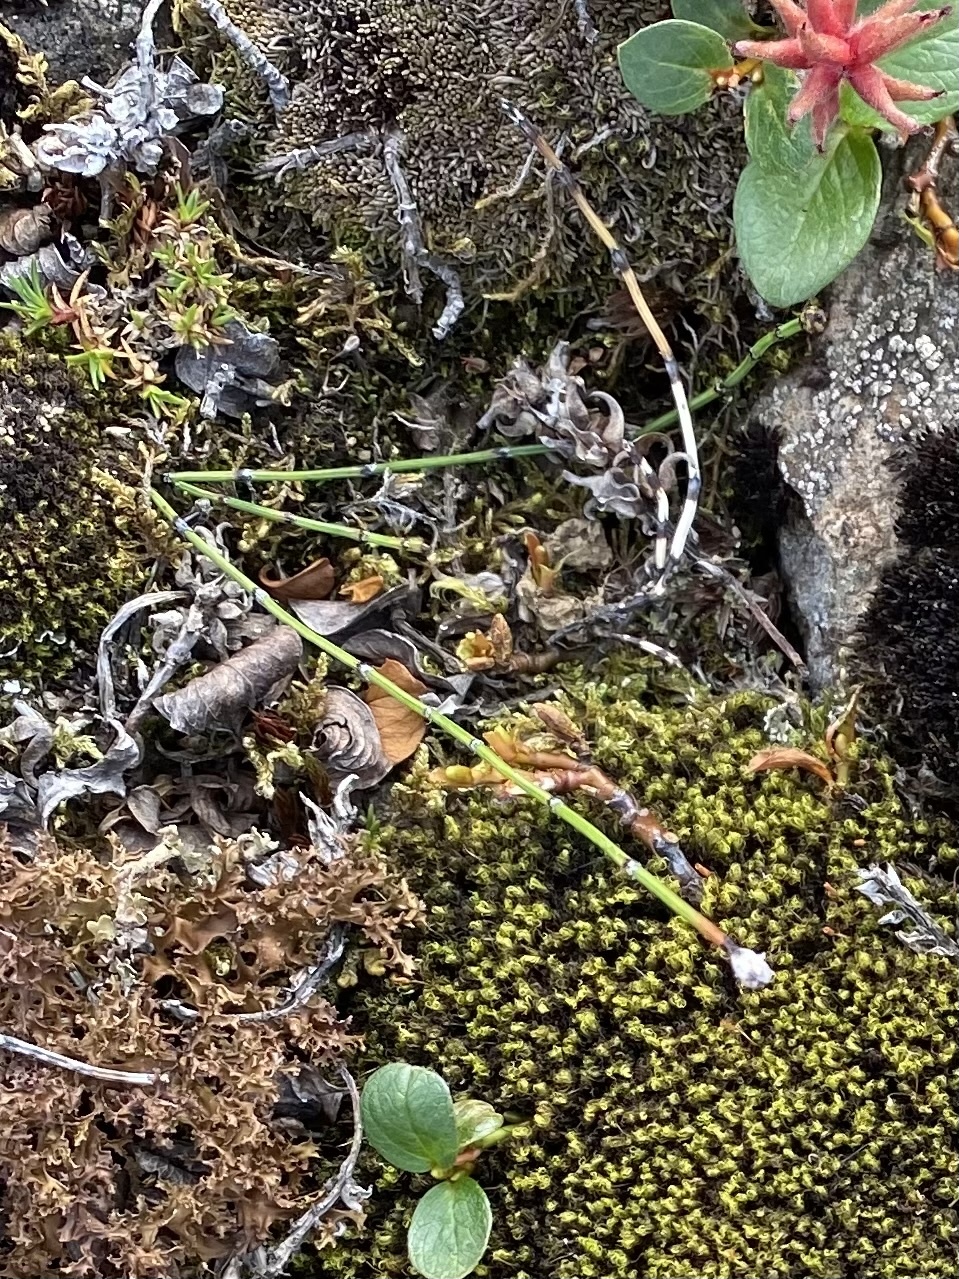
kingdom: Plantae
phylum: Tracheophyta
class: Polypodiopsida
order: Equisetales
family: Equisetaceae
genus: Equisetum
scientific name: Equisetum variegatum
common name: Variegated horsetail
